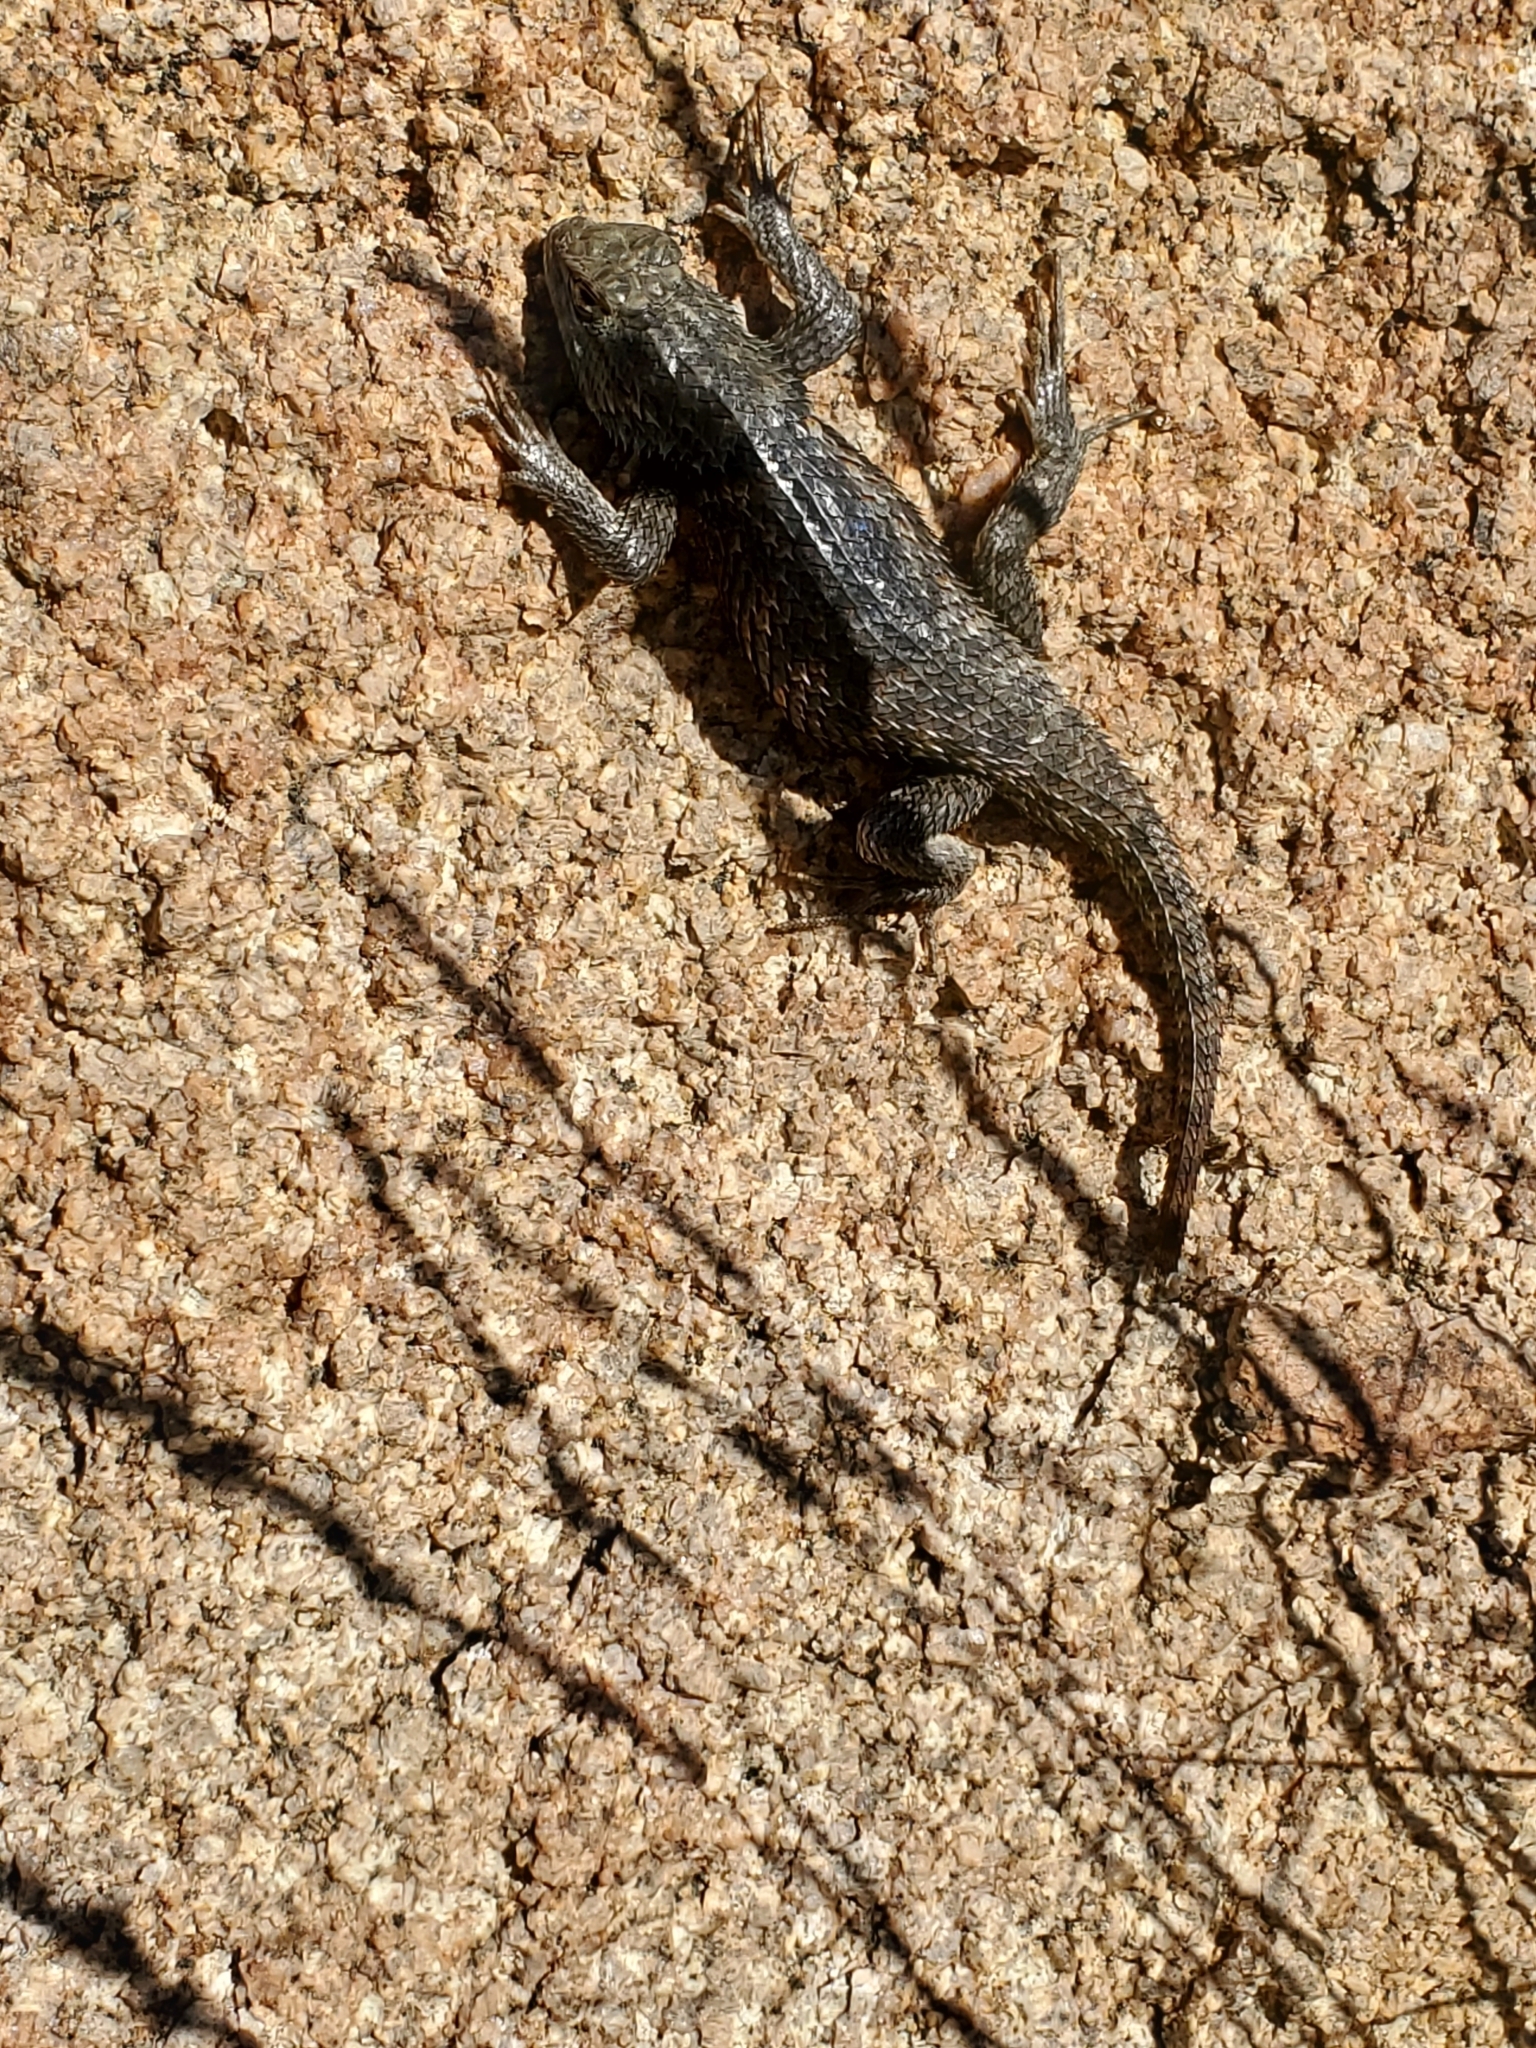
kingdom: Animalia
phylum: Chordata
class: Squamata
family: Phrynosomatidae
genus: Sceloporus
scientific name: Sceloporus magister
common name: Desert spiny lizard
